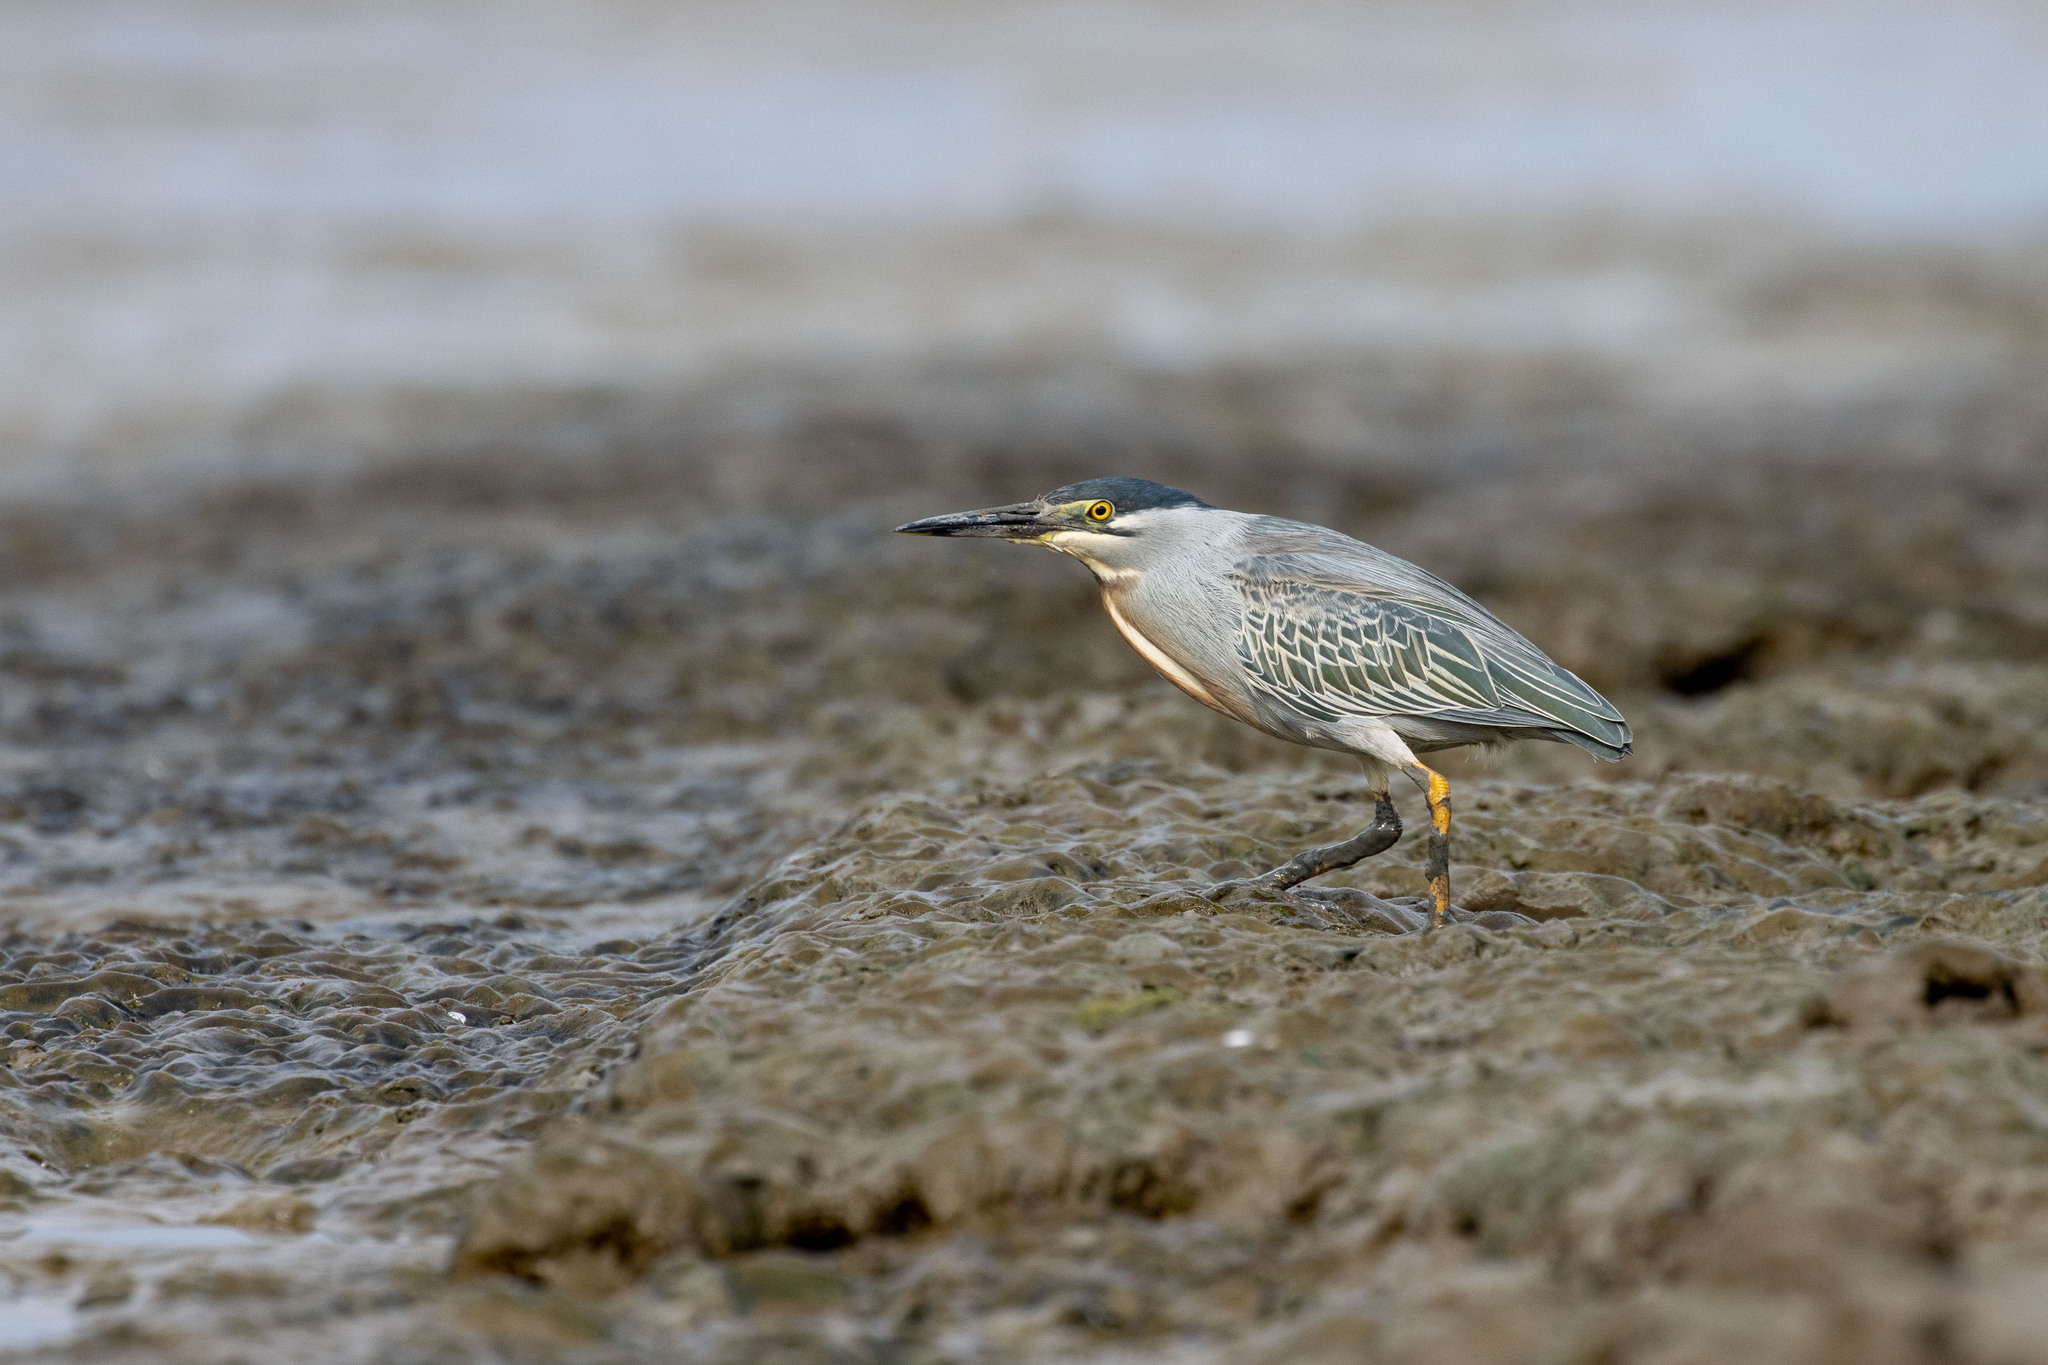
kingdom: Animalia
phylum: Chordata
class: Aves
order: Pelecaniformes
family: Ardeidae
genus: Butorides
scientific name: Butorides striata
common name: Striated heron
